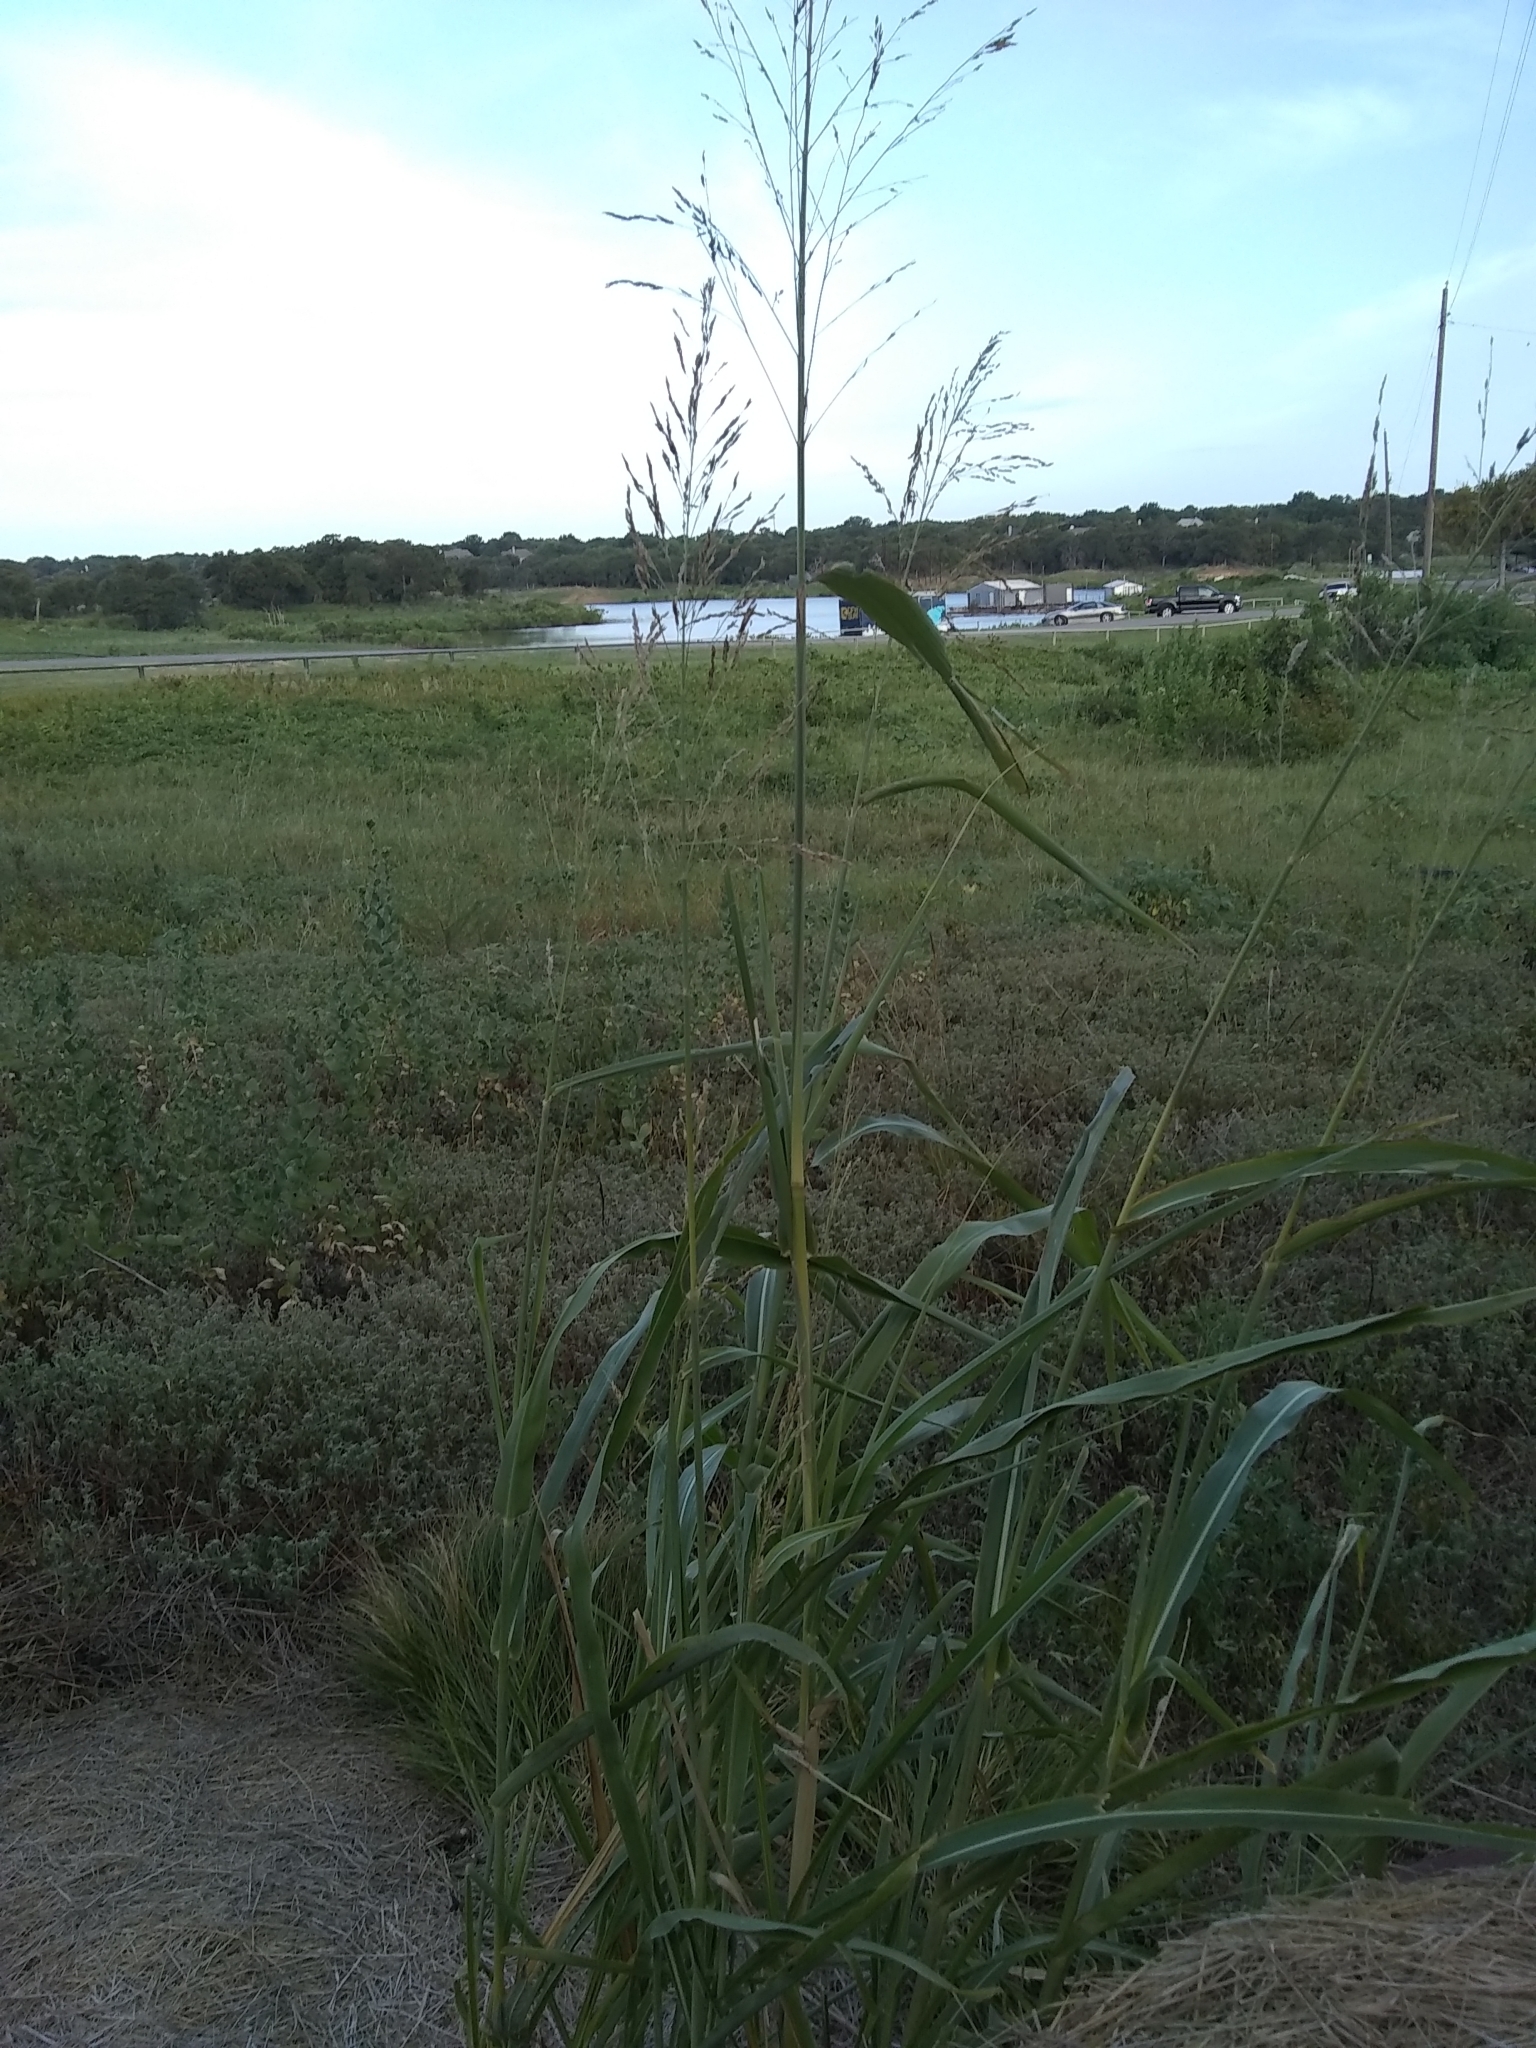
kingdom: Plantae
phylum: Tracheophyta
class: Liliopsida
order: Poales
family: Poaceae
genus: Sorghum
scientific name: Sorghum halepense
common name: Johnson-grass
